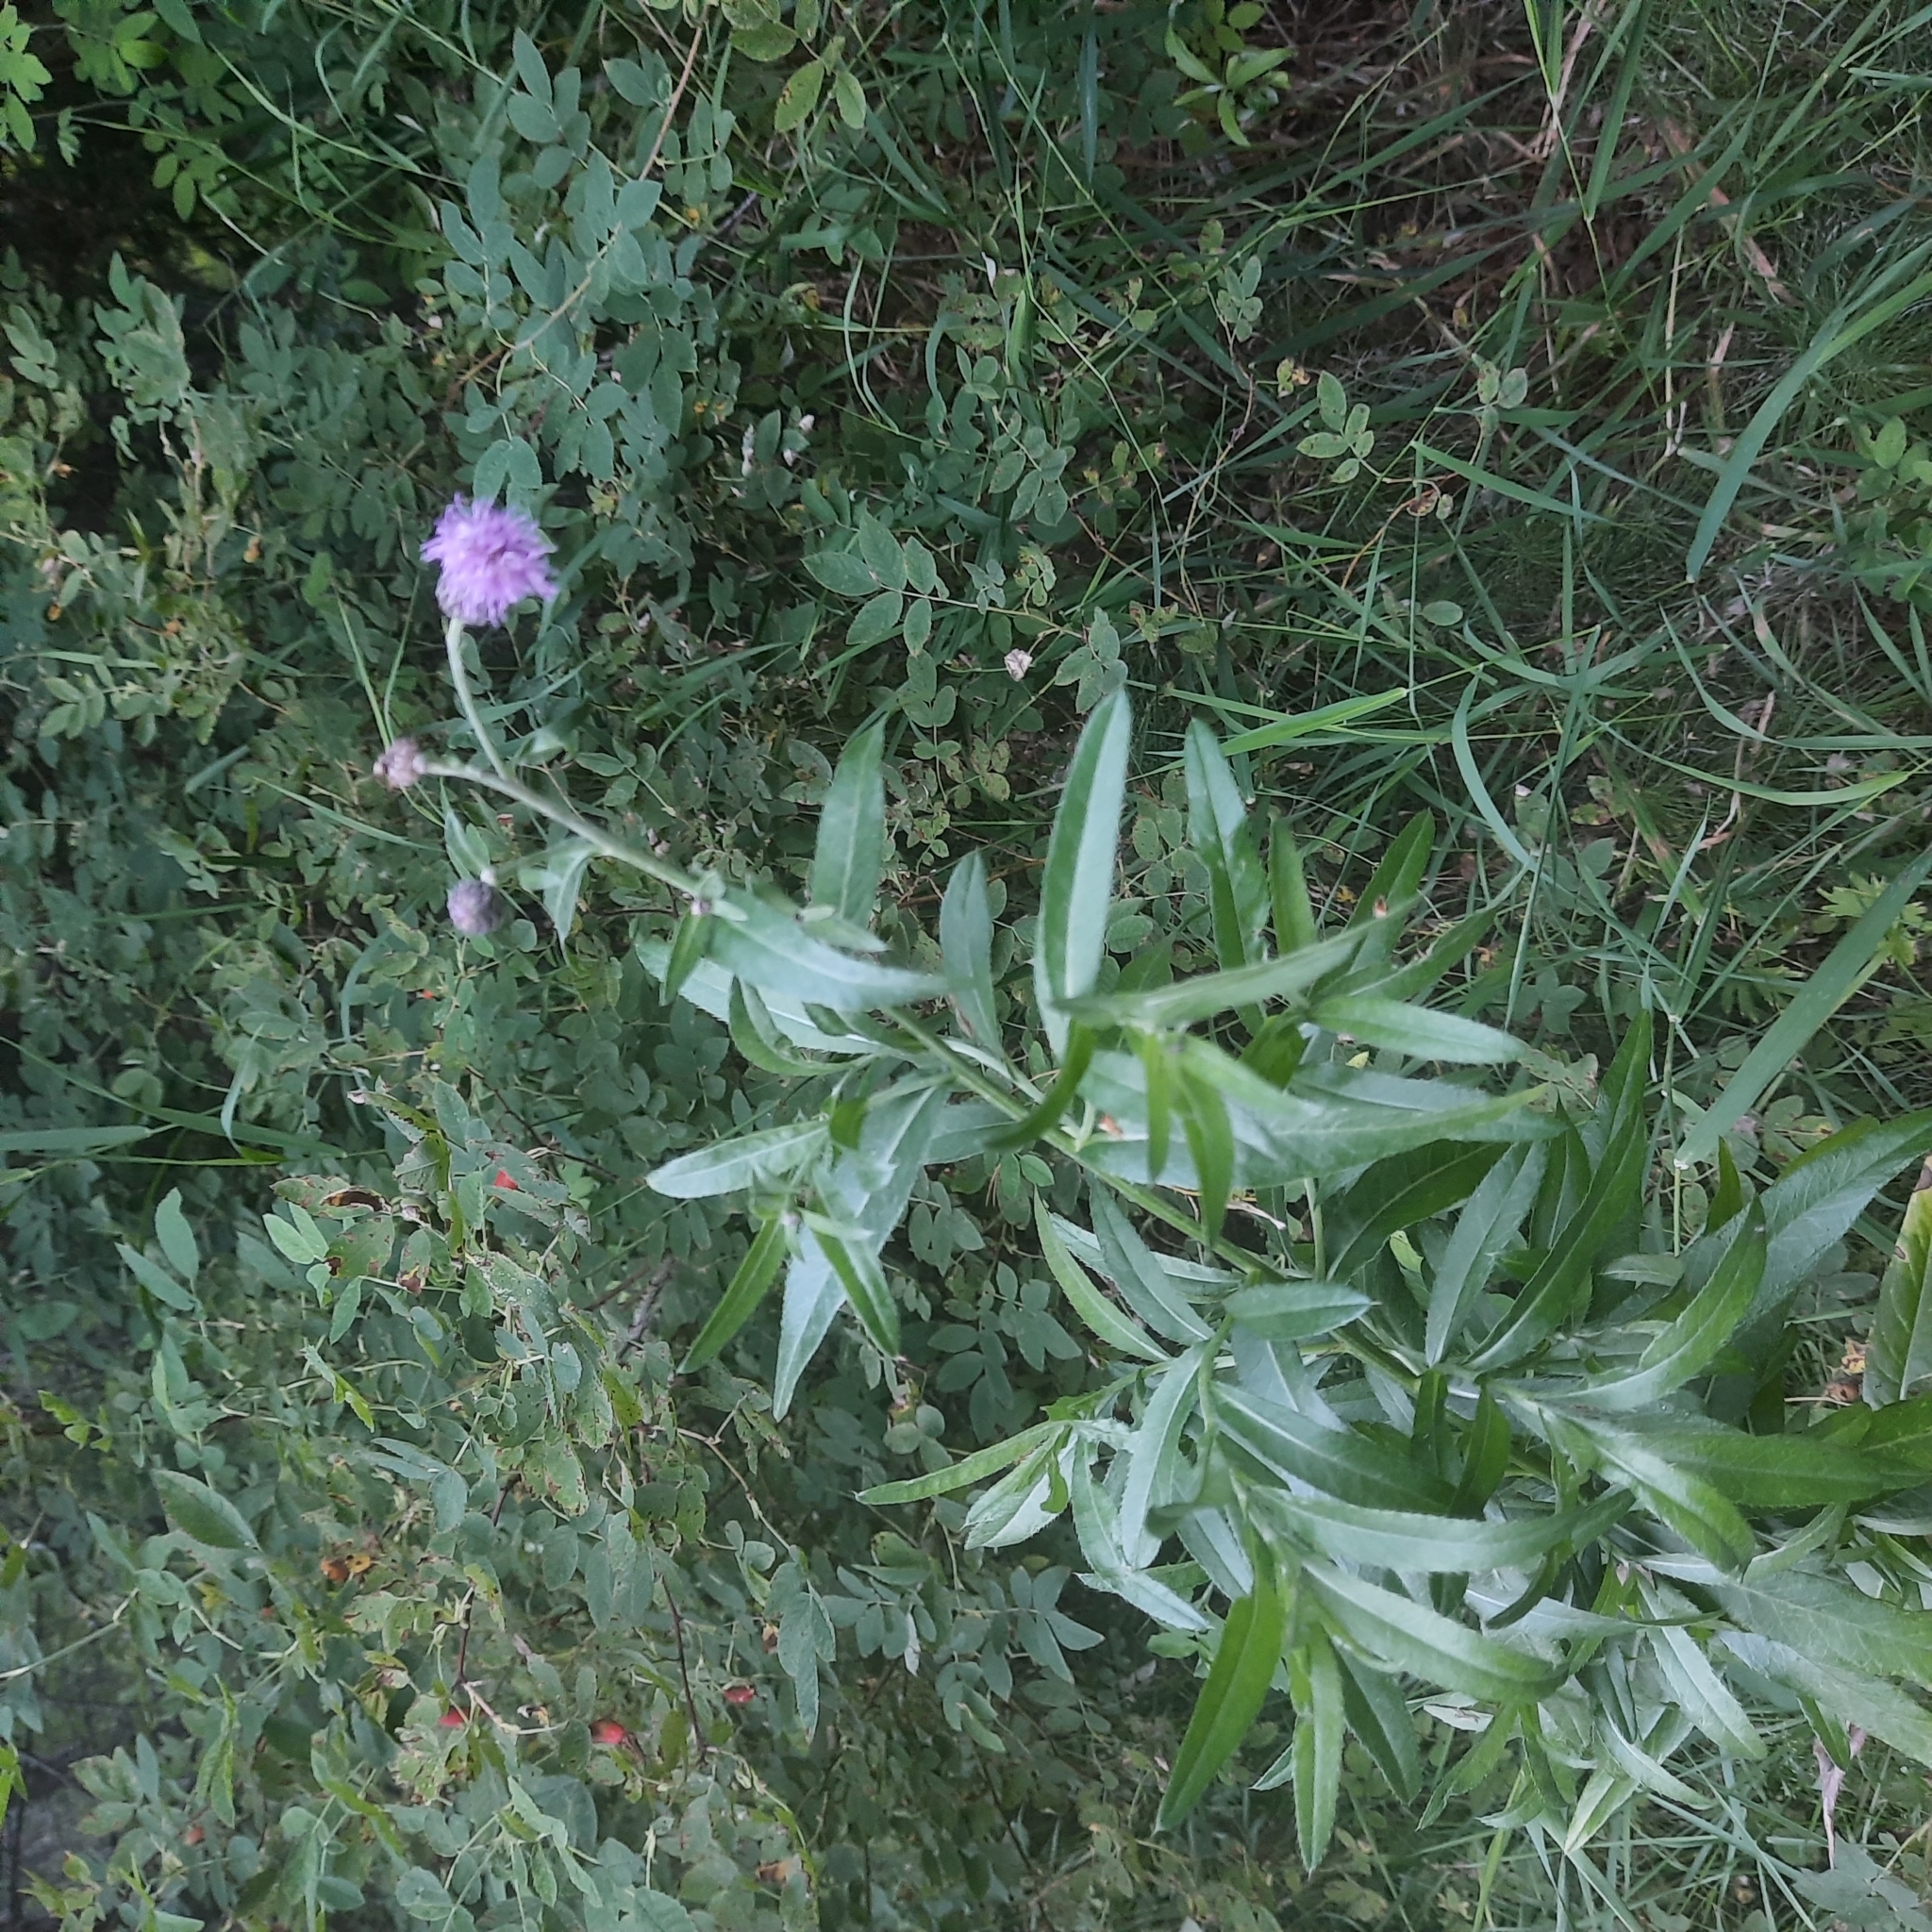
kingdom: Plantae
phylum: Tracheophyta
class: Magnoliopsida
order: Asterales
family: Asteraceae
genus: Cirsium
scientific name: Cirsium arvense
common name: Creeping thistle
